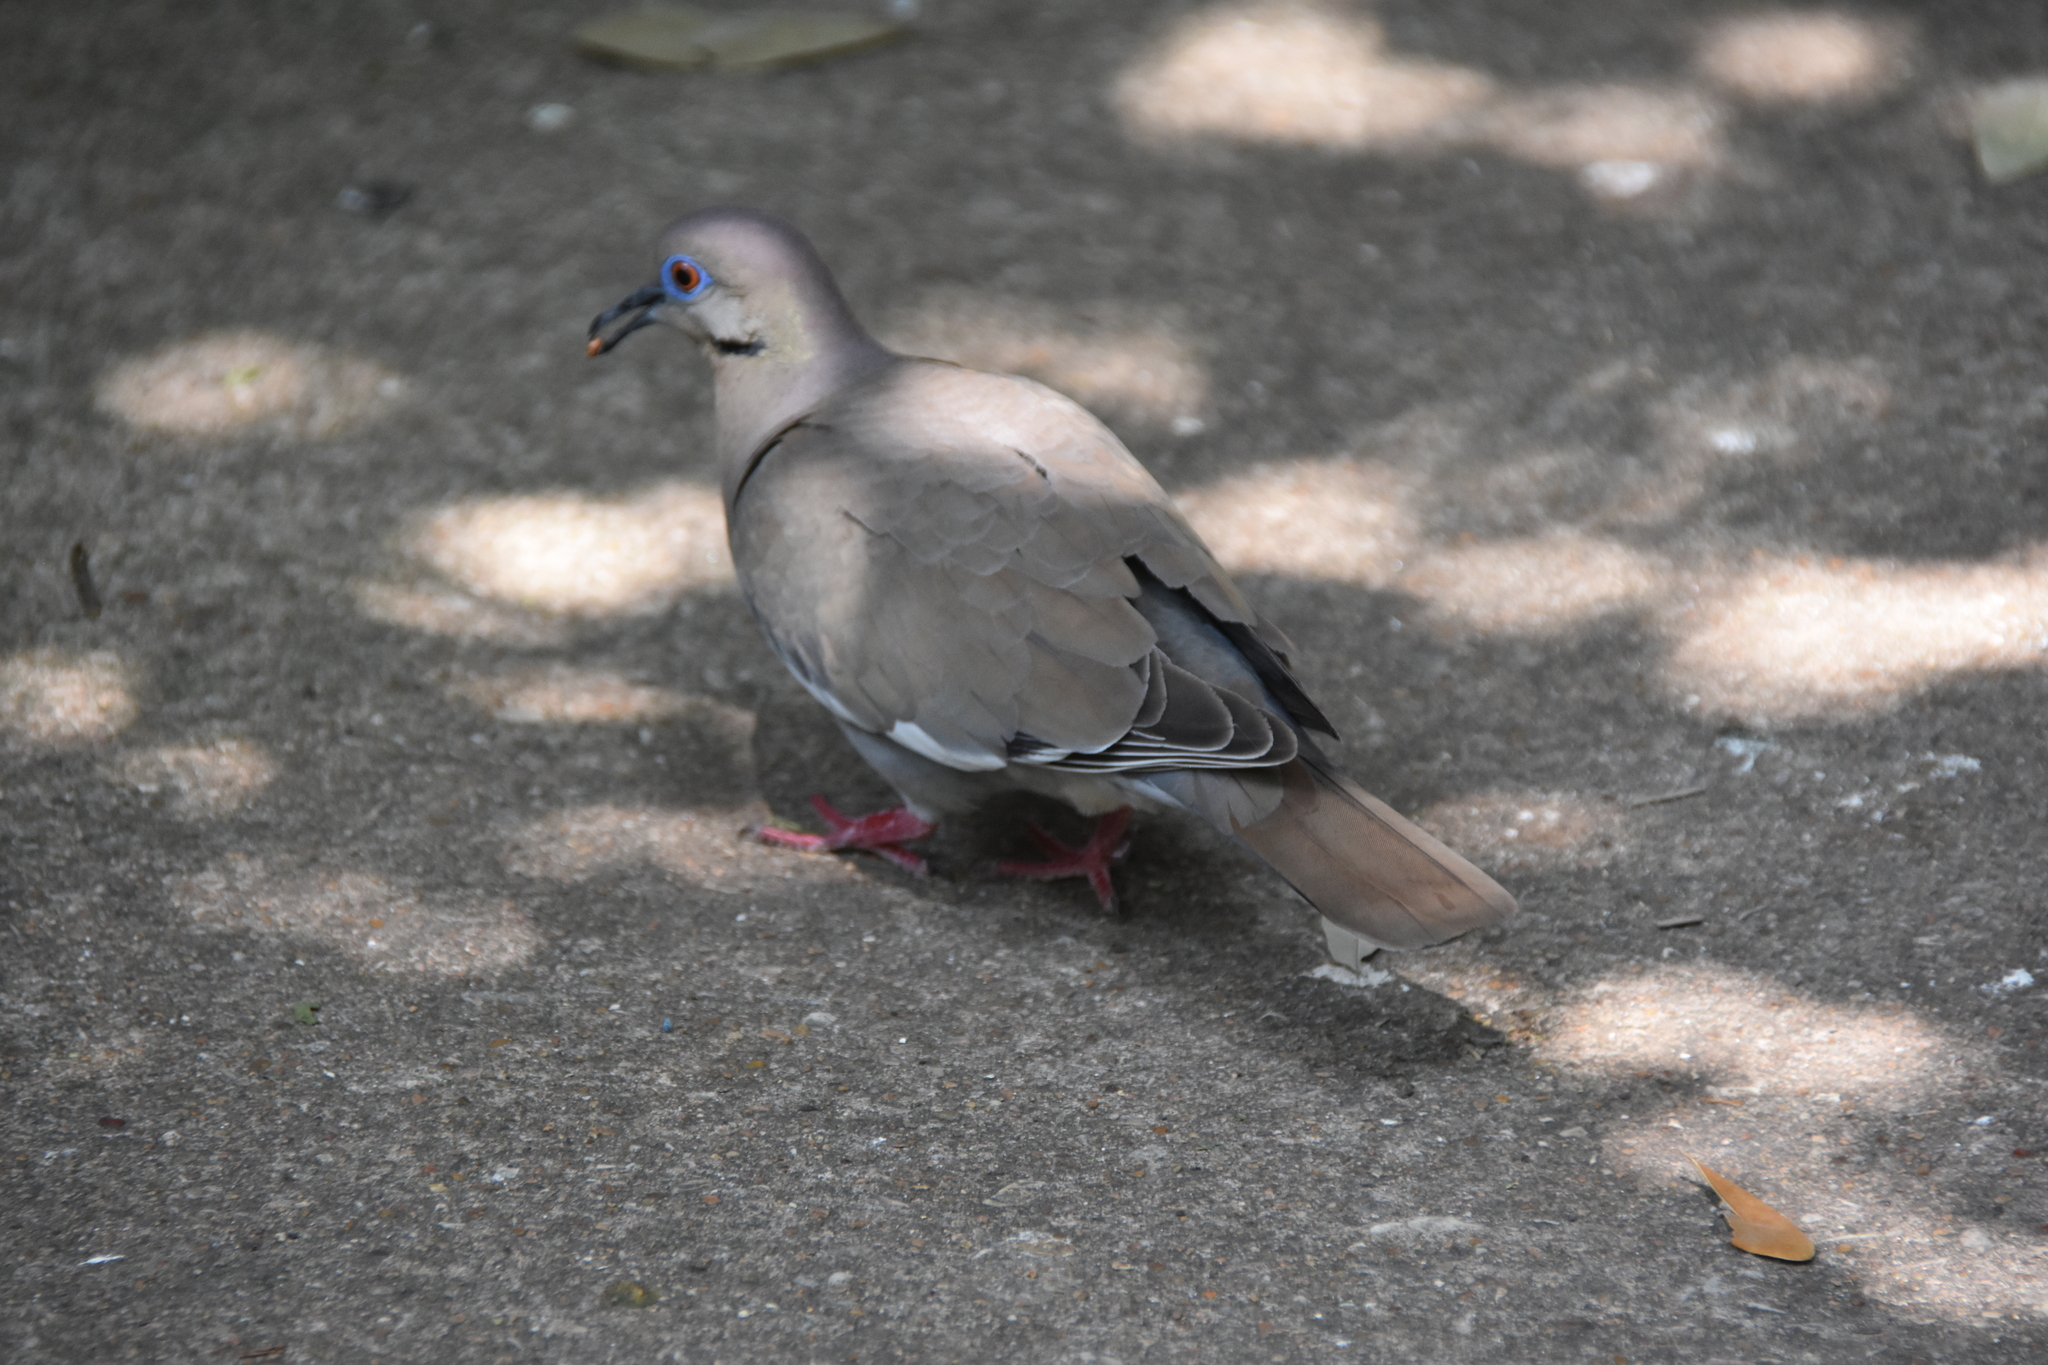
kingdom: Animalia
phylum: Chordata
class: Aves
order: Columbiformes
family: Columbidae
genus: Zenaida
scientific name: Zenaida asiatica
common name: White-winged dove
